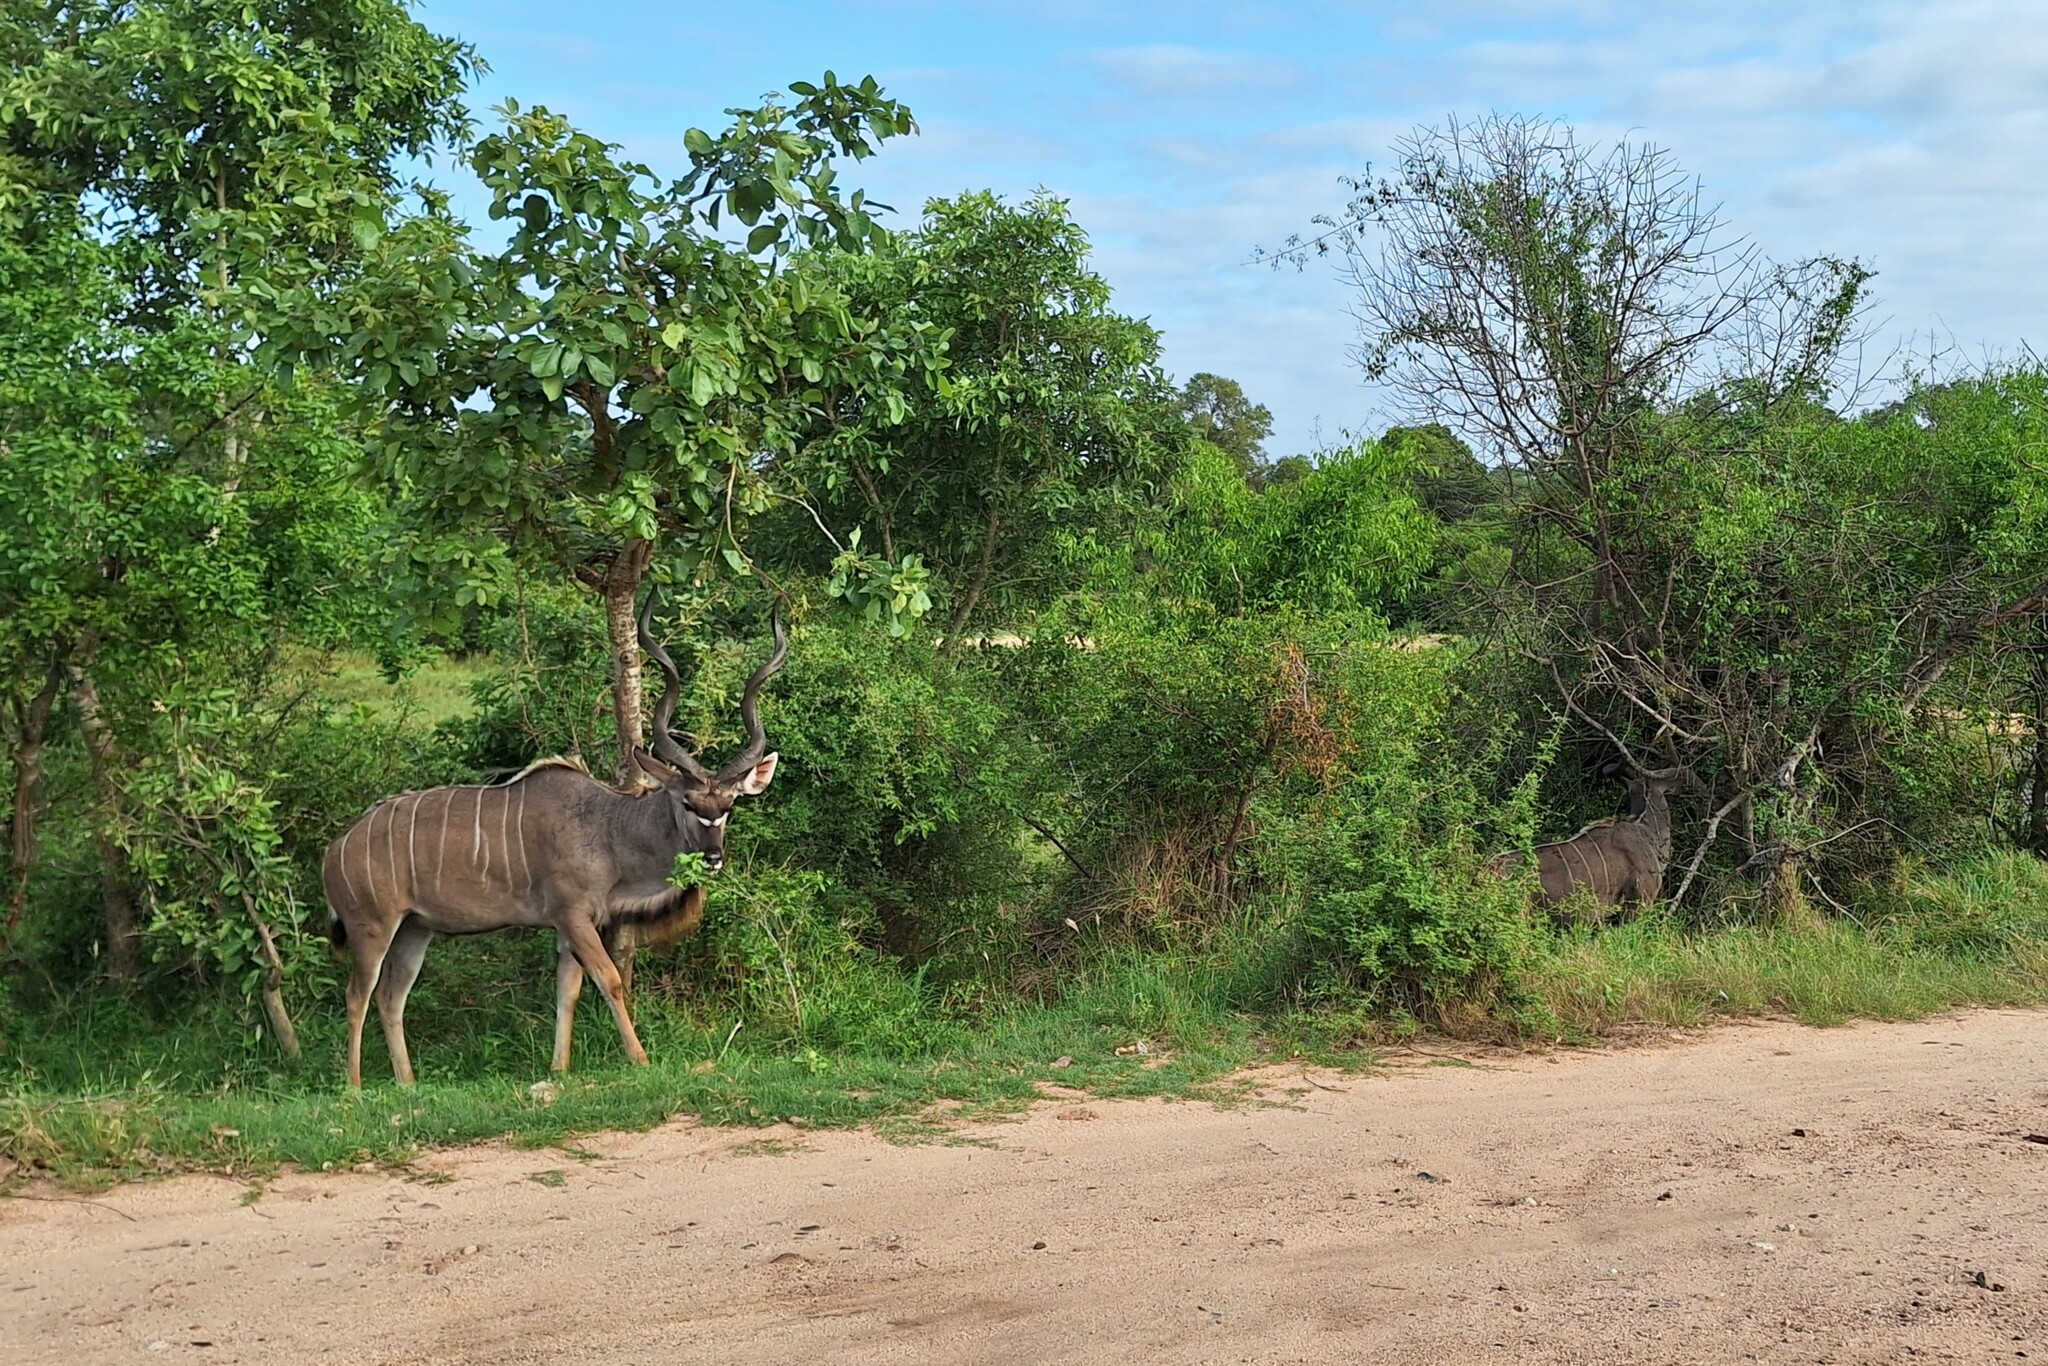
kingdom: Animalia
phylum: Chordata
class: Mammalia
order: Artiodactyla
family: Bovidae
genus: Tragelaphus
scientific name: Tragelaphus strepsiceros
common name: Greater kudu
